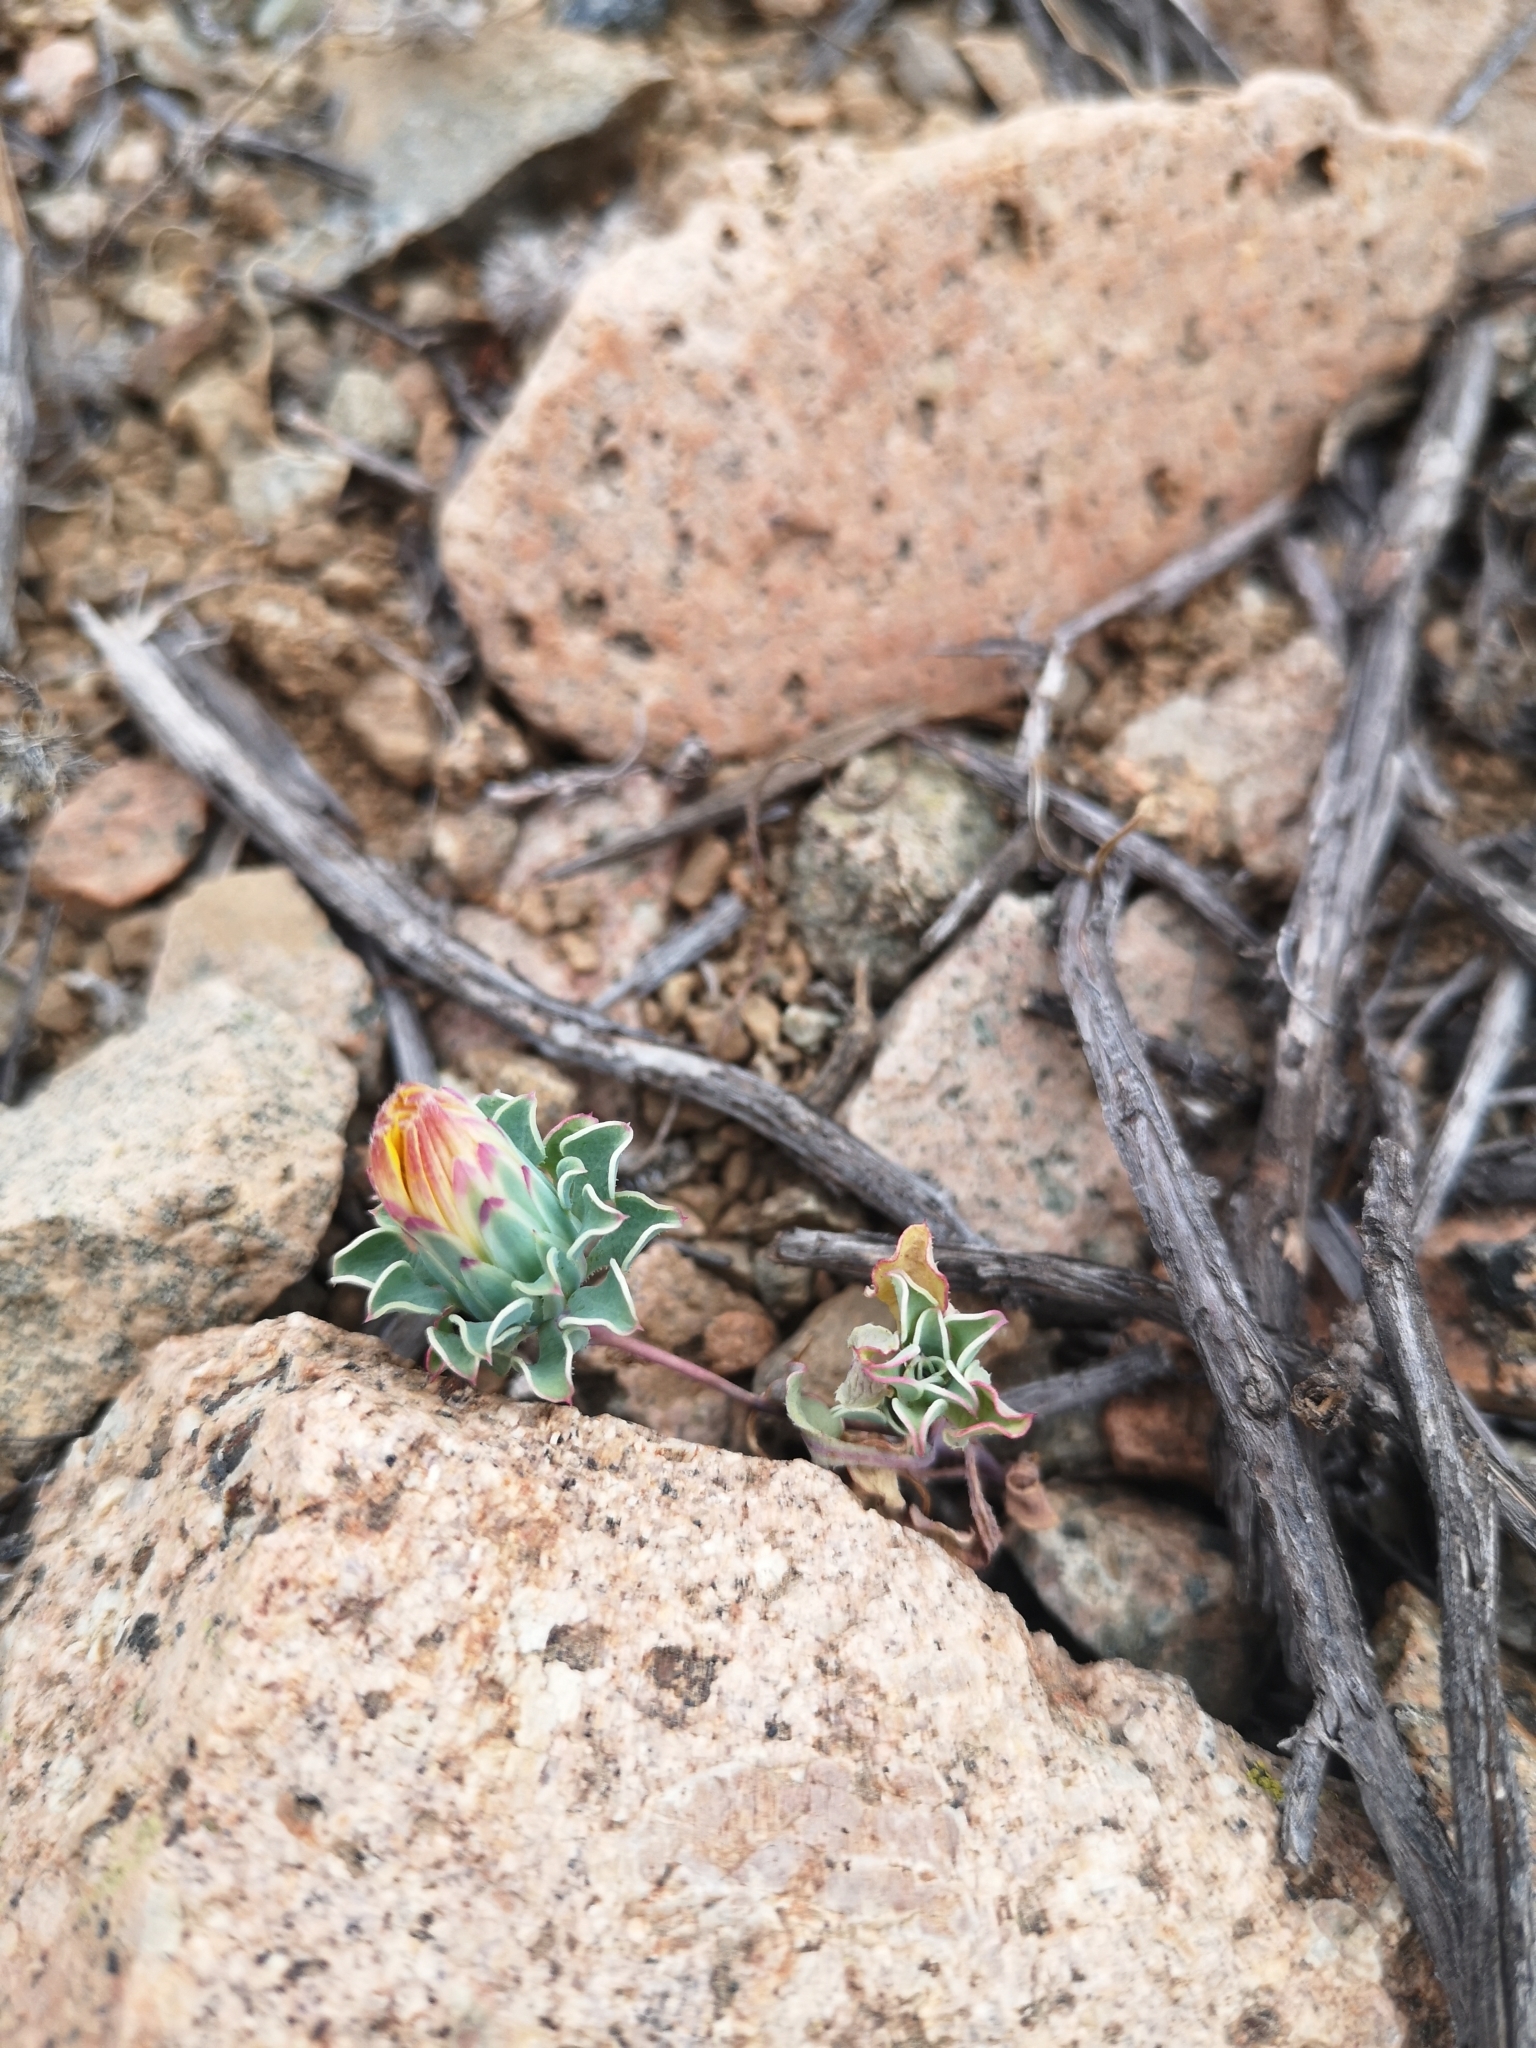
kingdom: Plantae
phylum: Tracheophyta
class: Magnoliopsida
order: Asterales
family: Asteraceae
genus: Chaetanthera
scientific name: Chaetanthera glabrata
